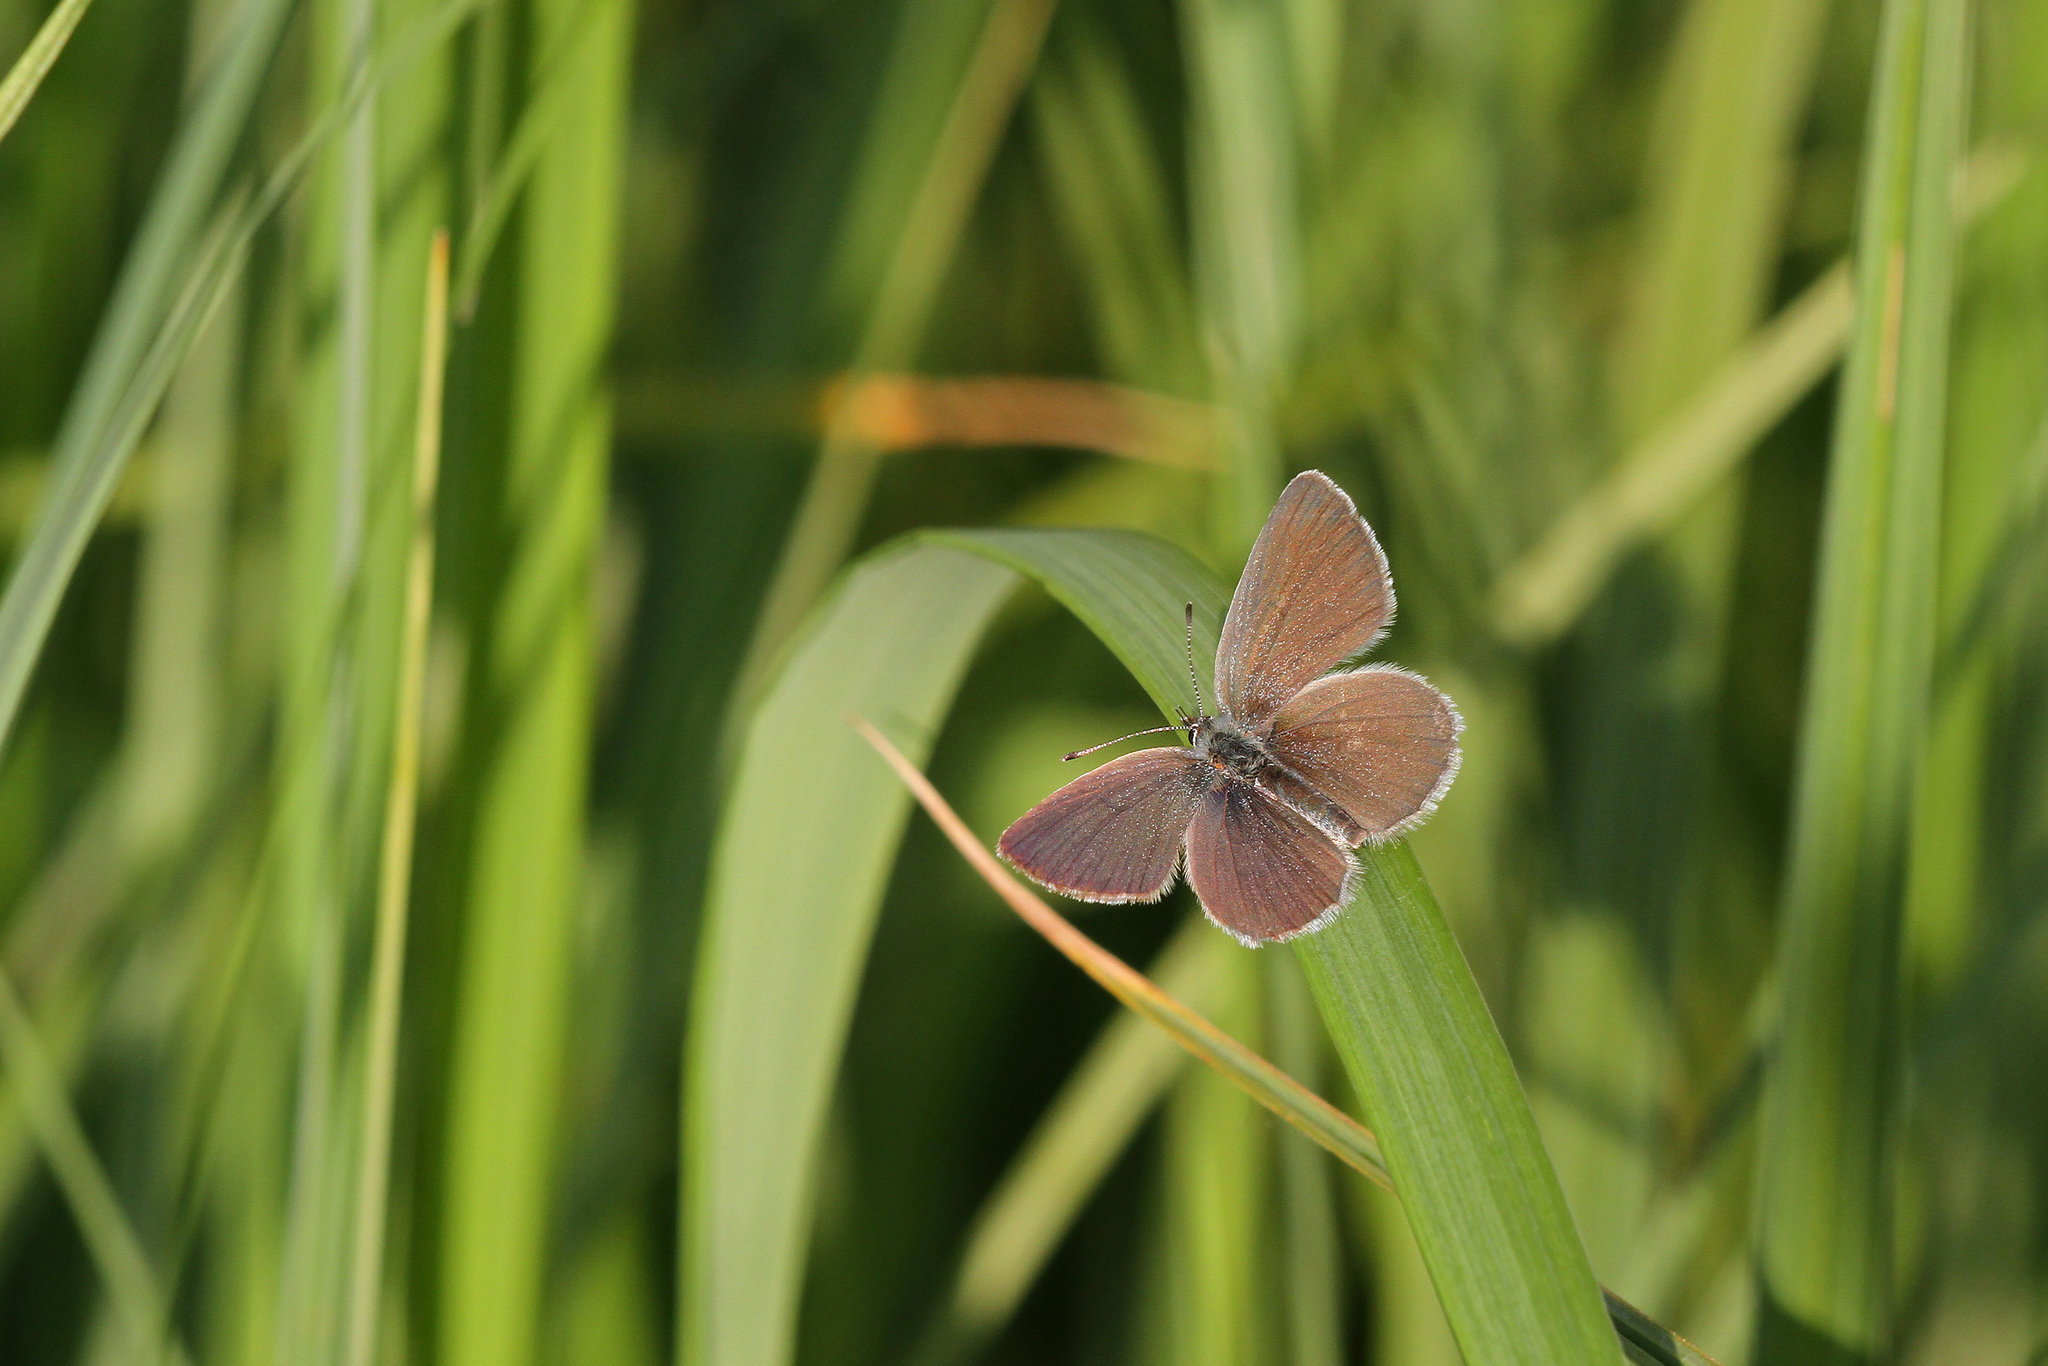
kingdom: Animalia
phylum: Arthropoda
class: Insecta
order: Lepidoptera
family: Lycaenidae
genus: Cupido
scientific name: Cupido minimus
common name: Small blue
